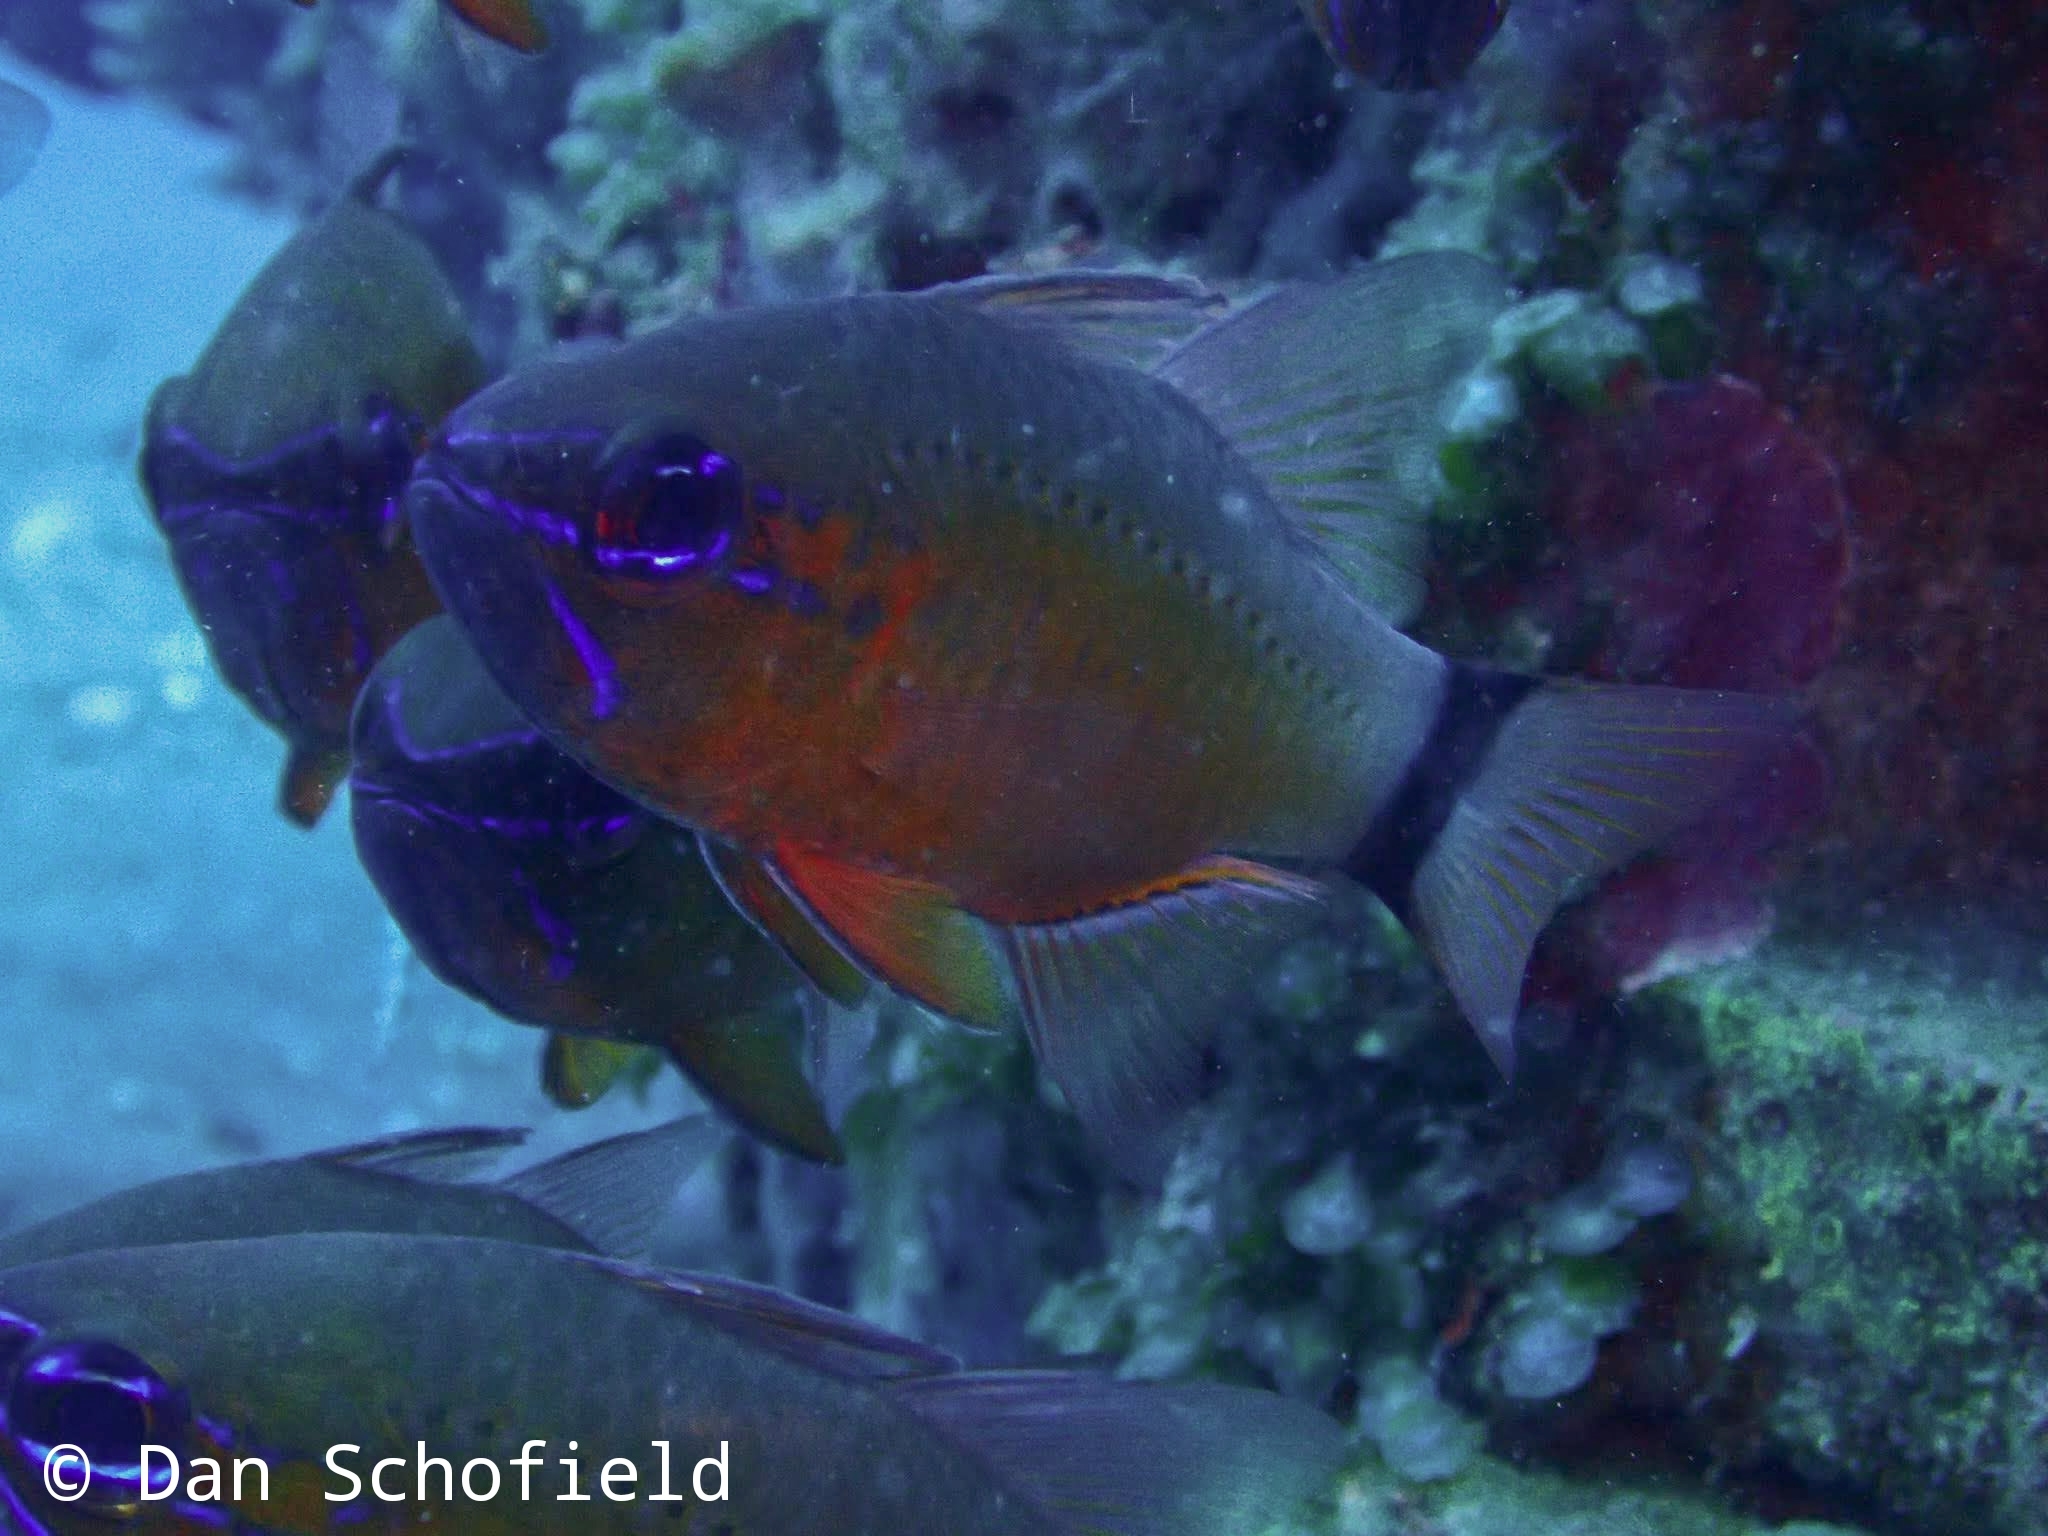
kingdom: Animalia
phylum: Chordata
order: Perciformes
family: Apogonidae
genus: Ostorhinchus
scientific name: Ostorhinchus aureus
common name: Ring-tailed cardinalfish
